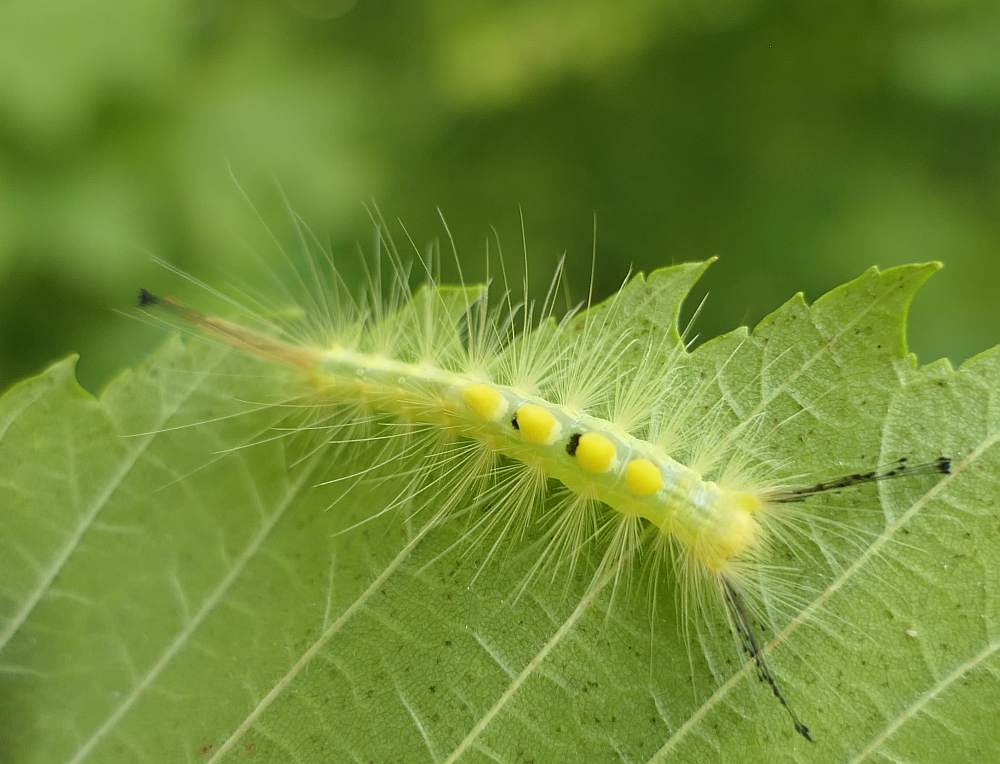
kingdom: Animalia
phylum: Arthropoda
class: Insecta
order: Lepidoptera
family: Erebidae
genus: Orgyia
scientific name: Orgyia definita
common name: Definite tussock moth
